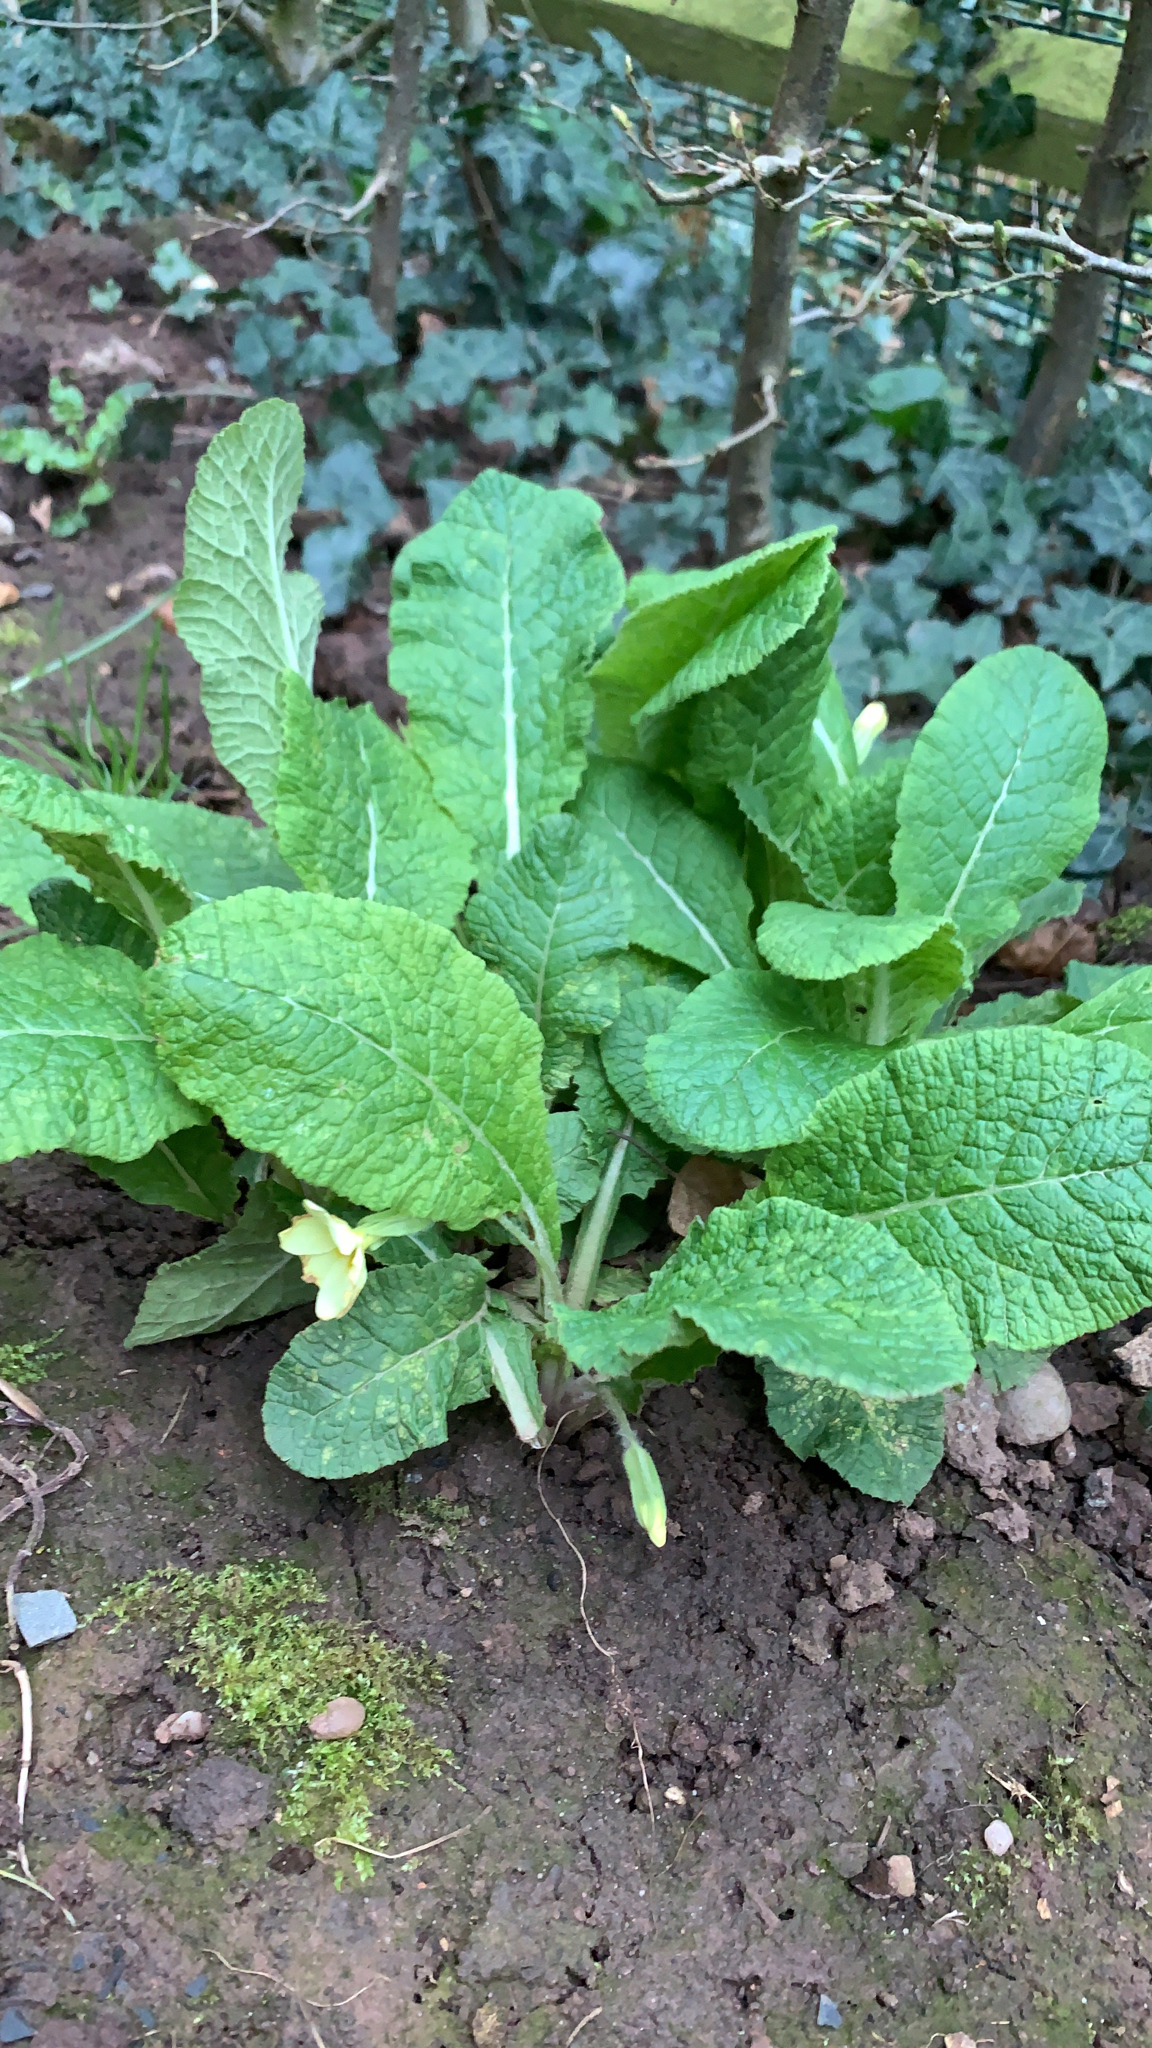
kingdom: Plantae
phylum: Tracheophyta
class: Magnoliopsida
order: Ericales
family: Primulaceae
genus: Primula
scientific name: Primula vulgaris
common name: Primrose
